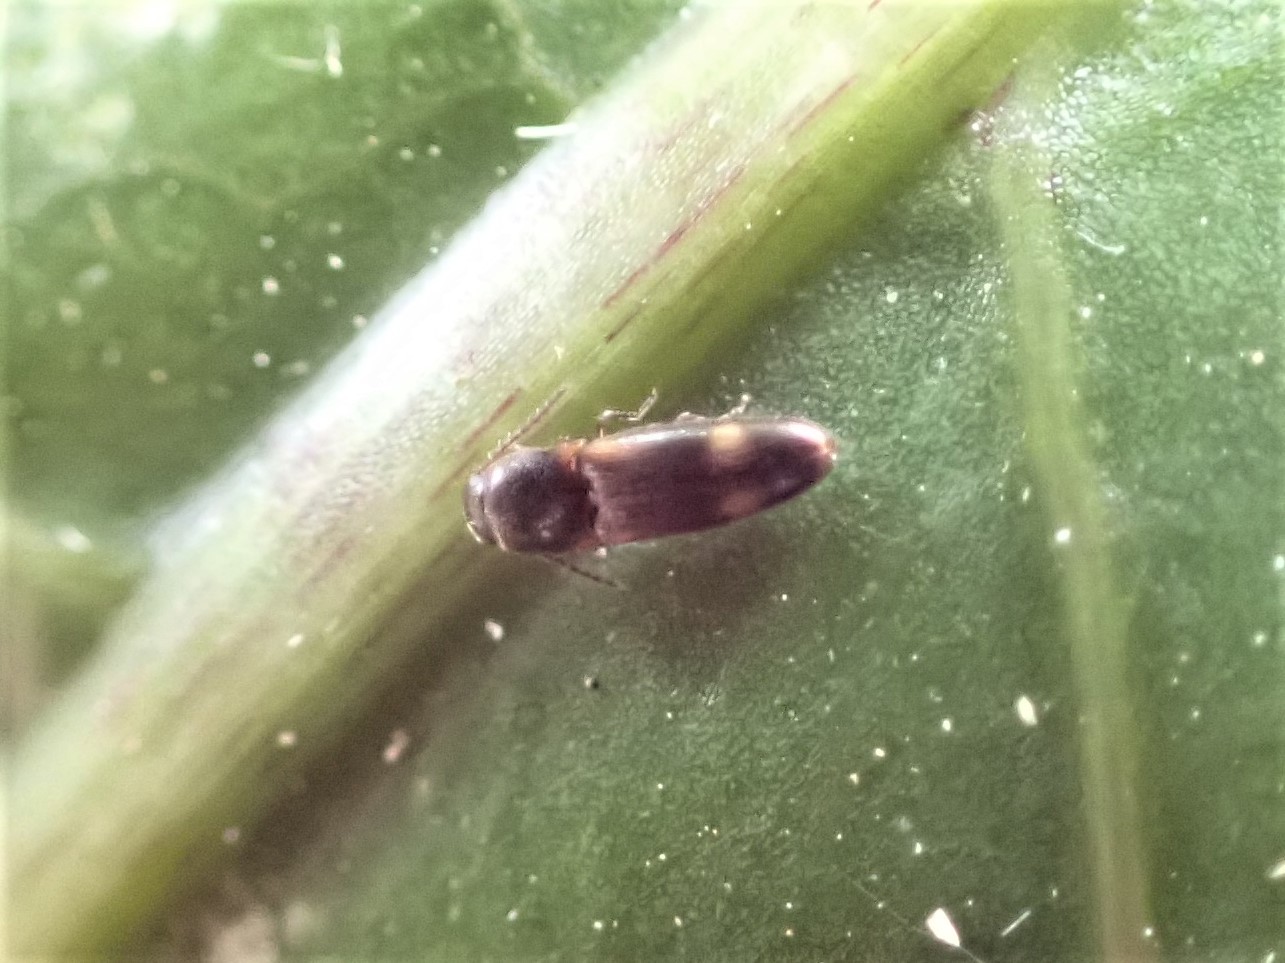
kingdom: Animalia
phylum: Arthropoda
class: Insecta
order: Coleoptera
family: Elateridae
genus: Panspaeus
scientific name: Panspaeus guttatus
